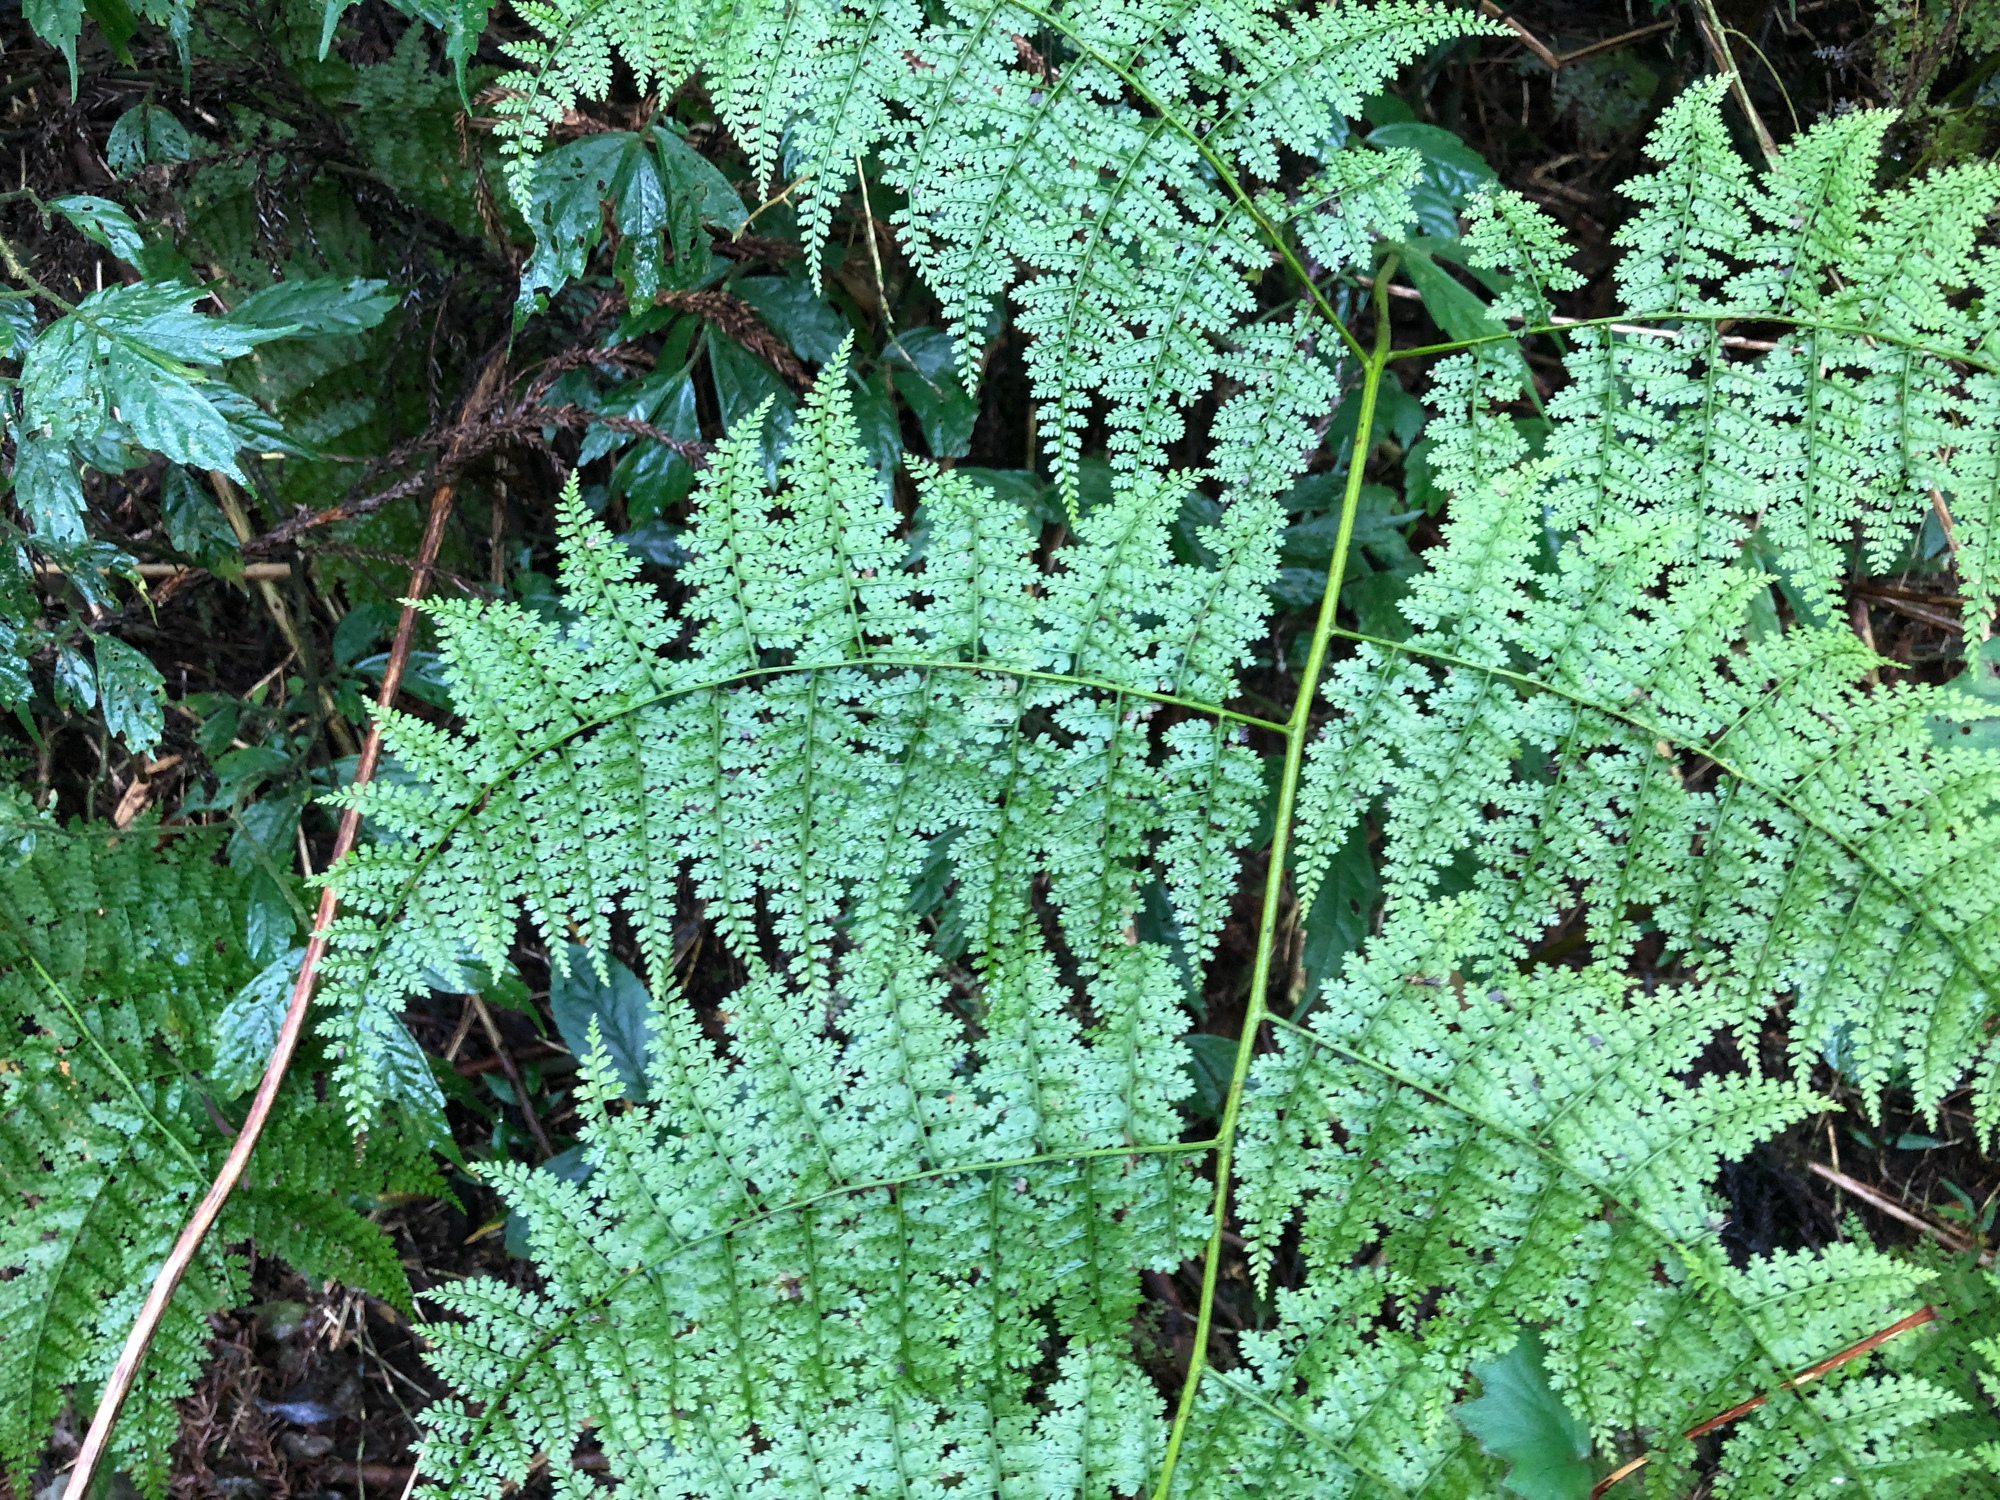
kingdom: Plantae
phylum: Tracheophyta
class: Polypodiopsida
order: Polypodiales
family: Dennstaedtiaceae
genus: Monachosorum
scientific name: Monachosorum henryi
